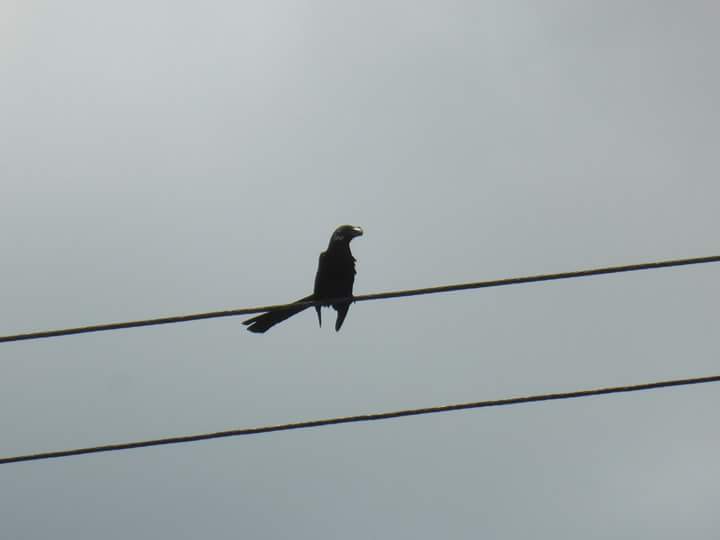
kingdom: Animalia
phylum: Chordata
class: Aves
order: Cuculiformes
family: Cuculidae
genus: Crotophaga
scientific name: Crotophaga ani
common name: Smooth-billed ani
